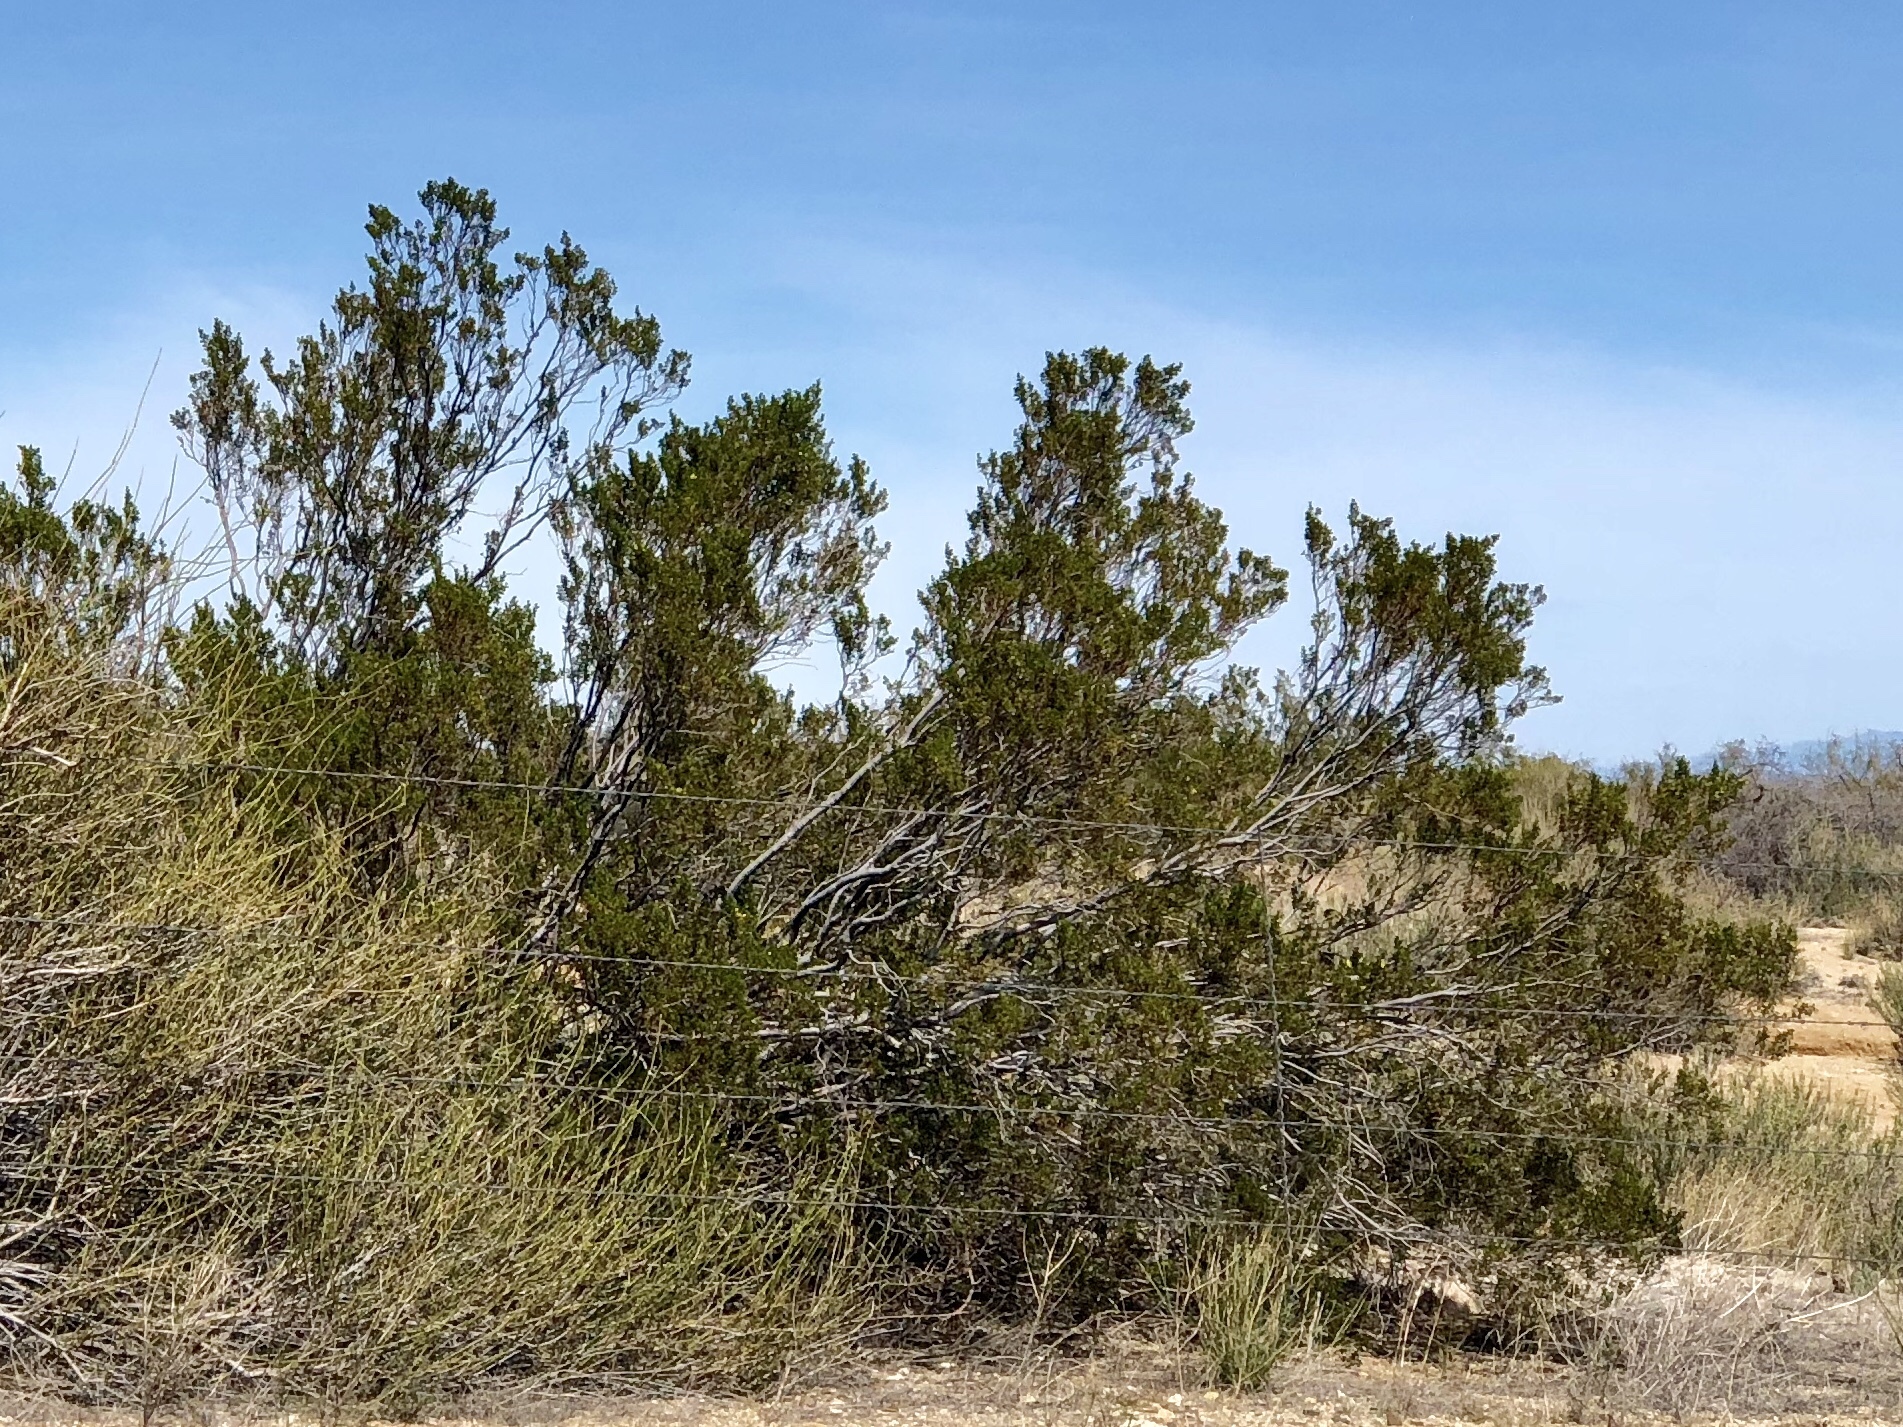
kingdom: Plantae
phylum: Tracheophyta
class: Magnoliopsida
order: Zygophyllales
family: Zygophyllaceae
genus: Larrea
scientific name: Larrea tridentata
